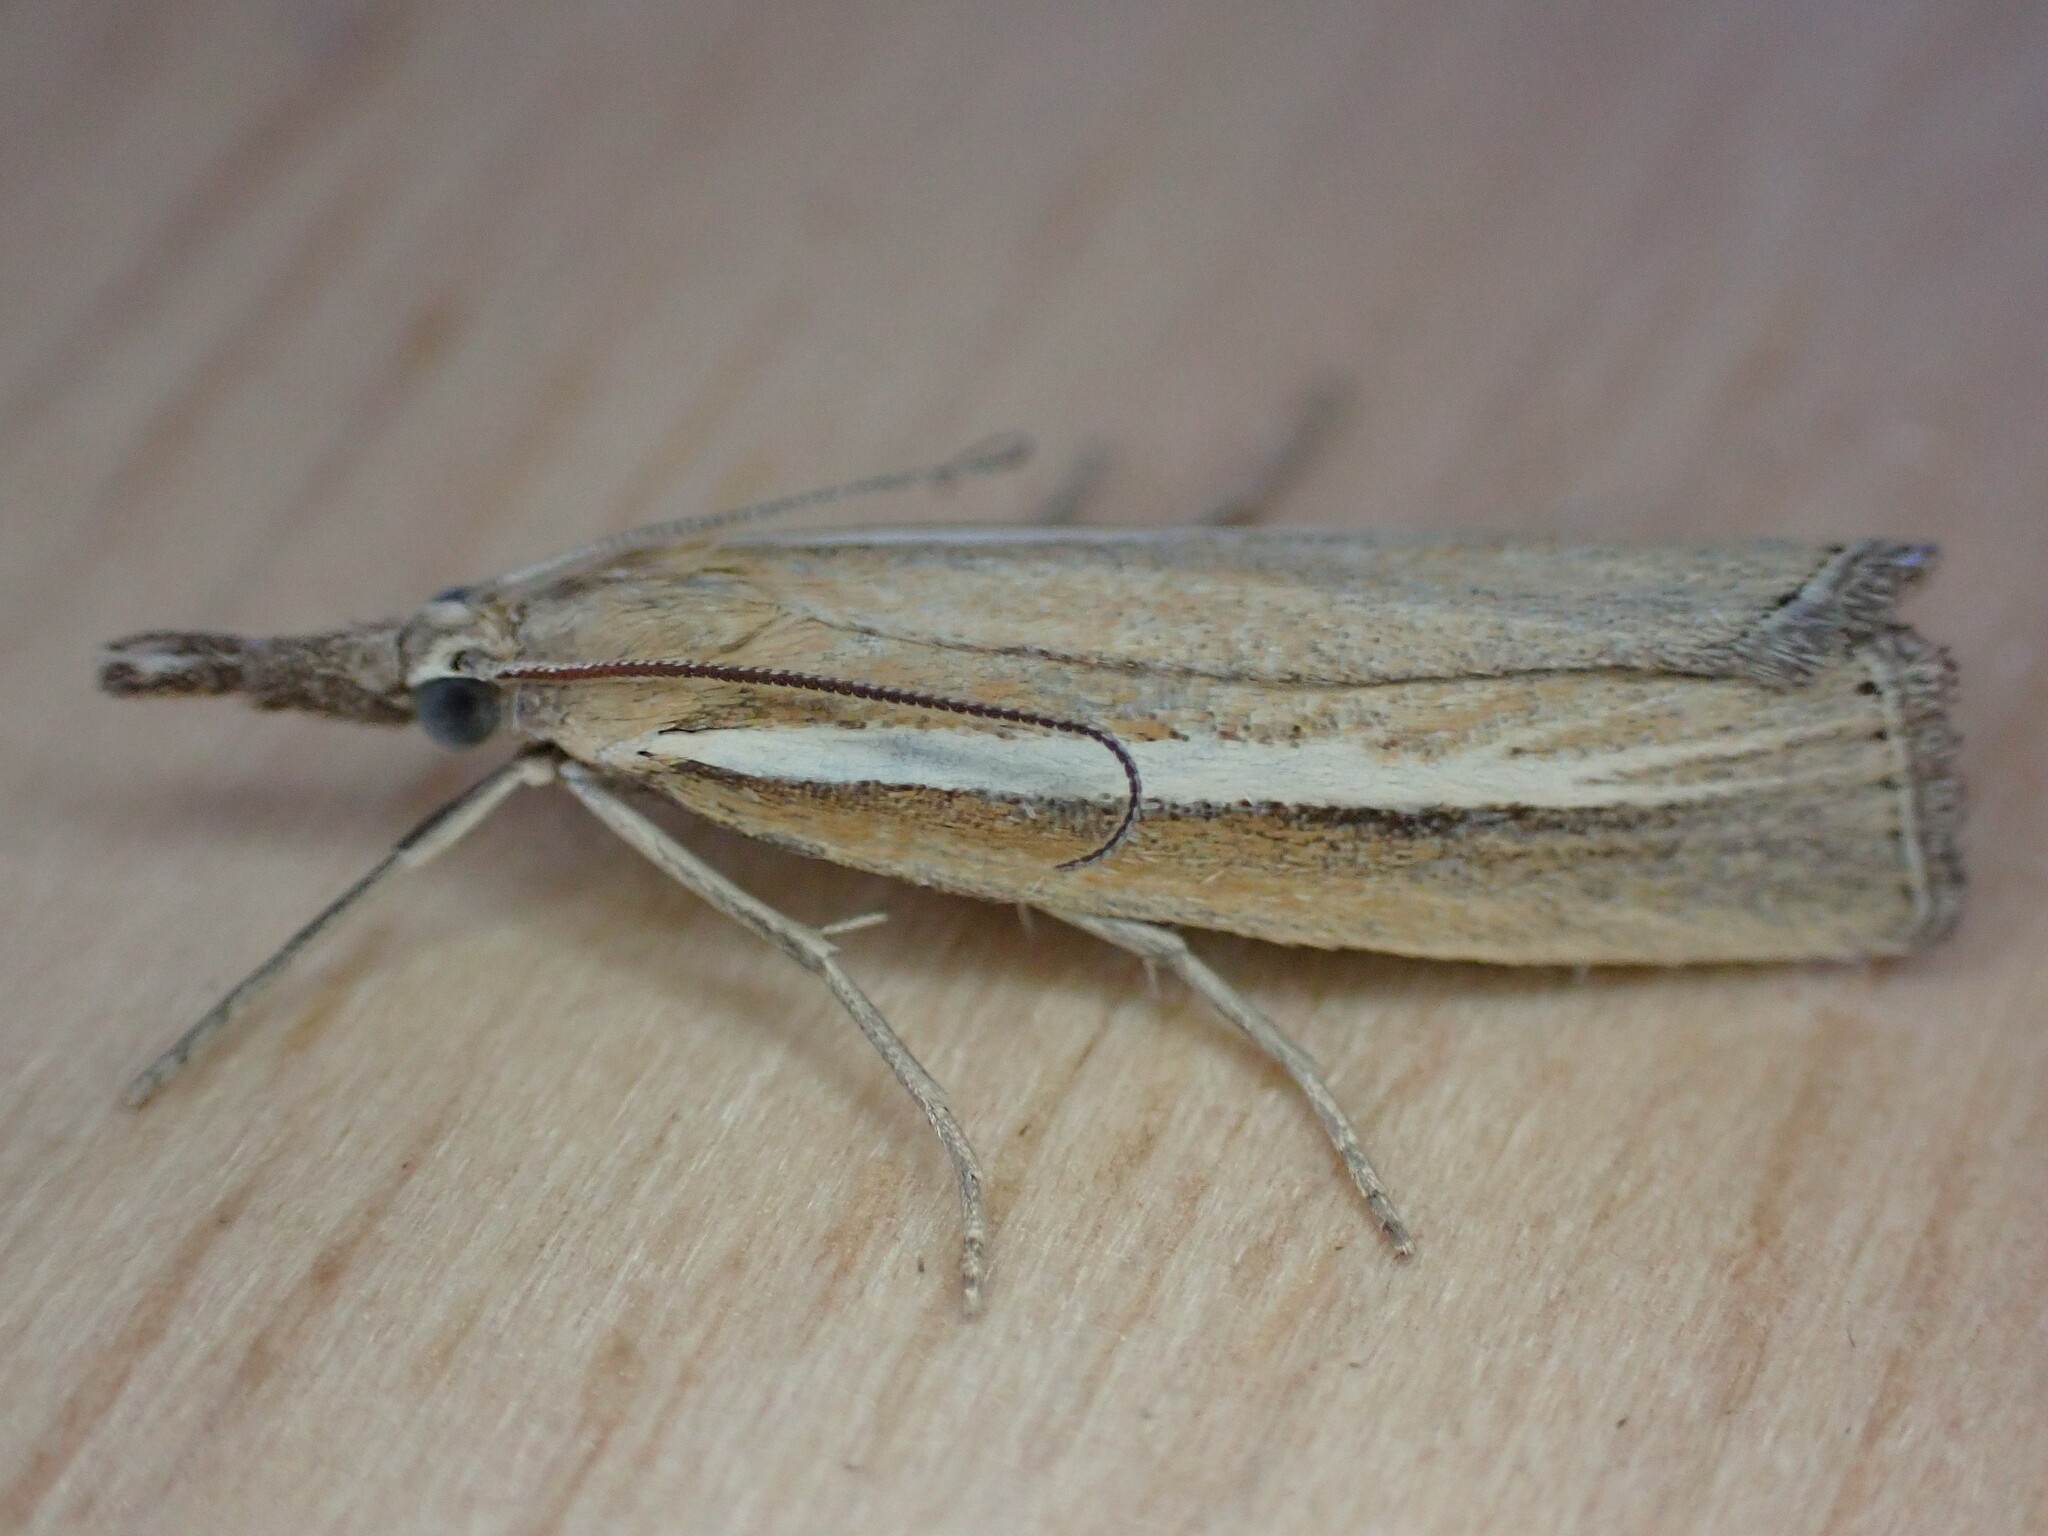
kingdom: Animalia
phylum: Arthropoda
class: Insecta
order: Lepidoptera
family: Crambidae
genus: Agriphila
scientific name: Agriphila selasella
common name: Pale-streak grass-veneer
